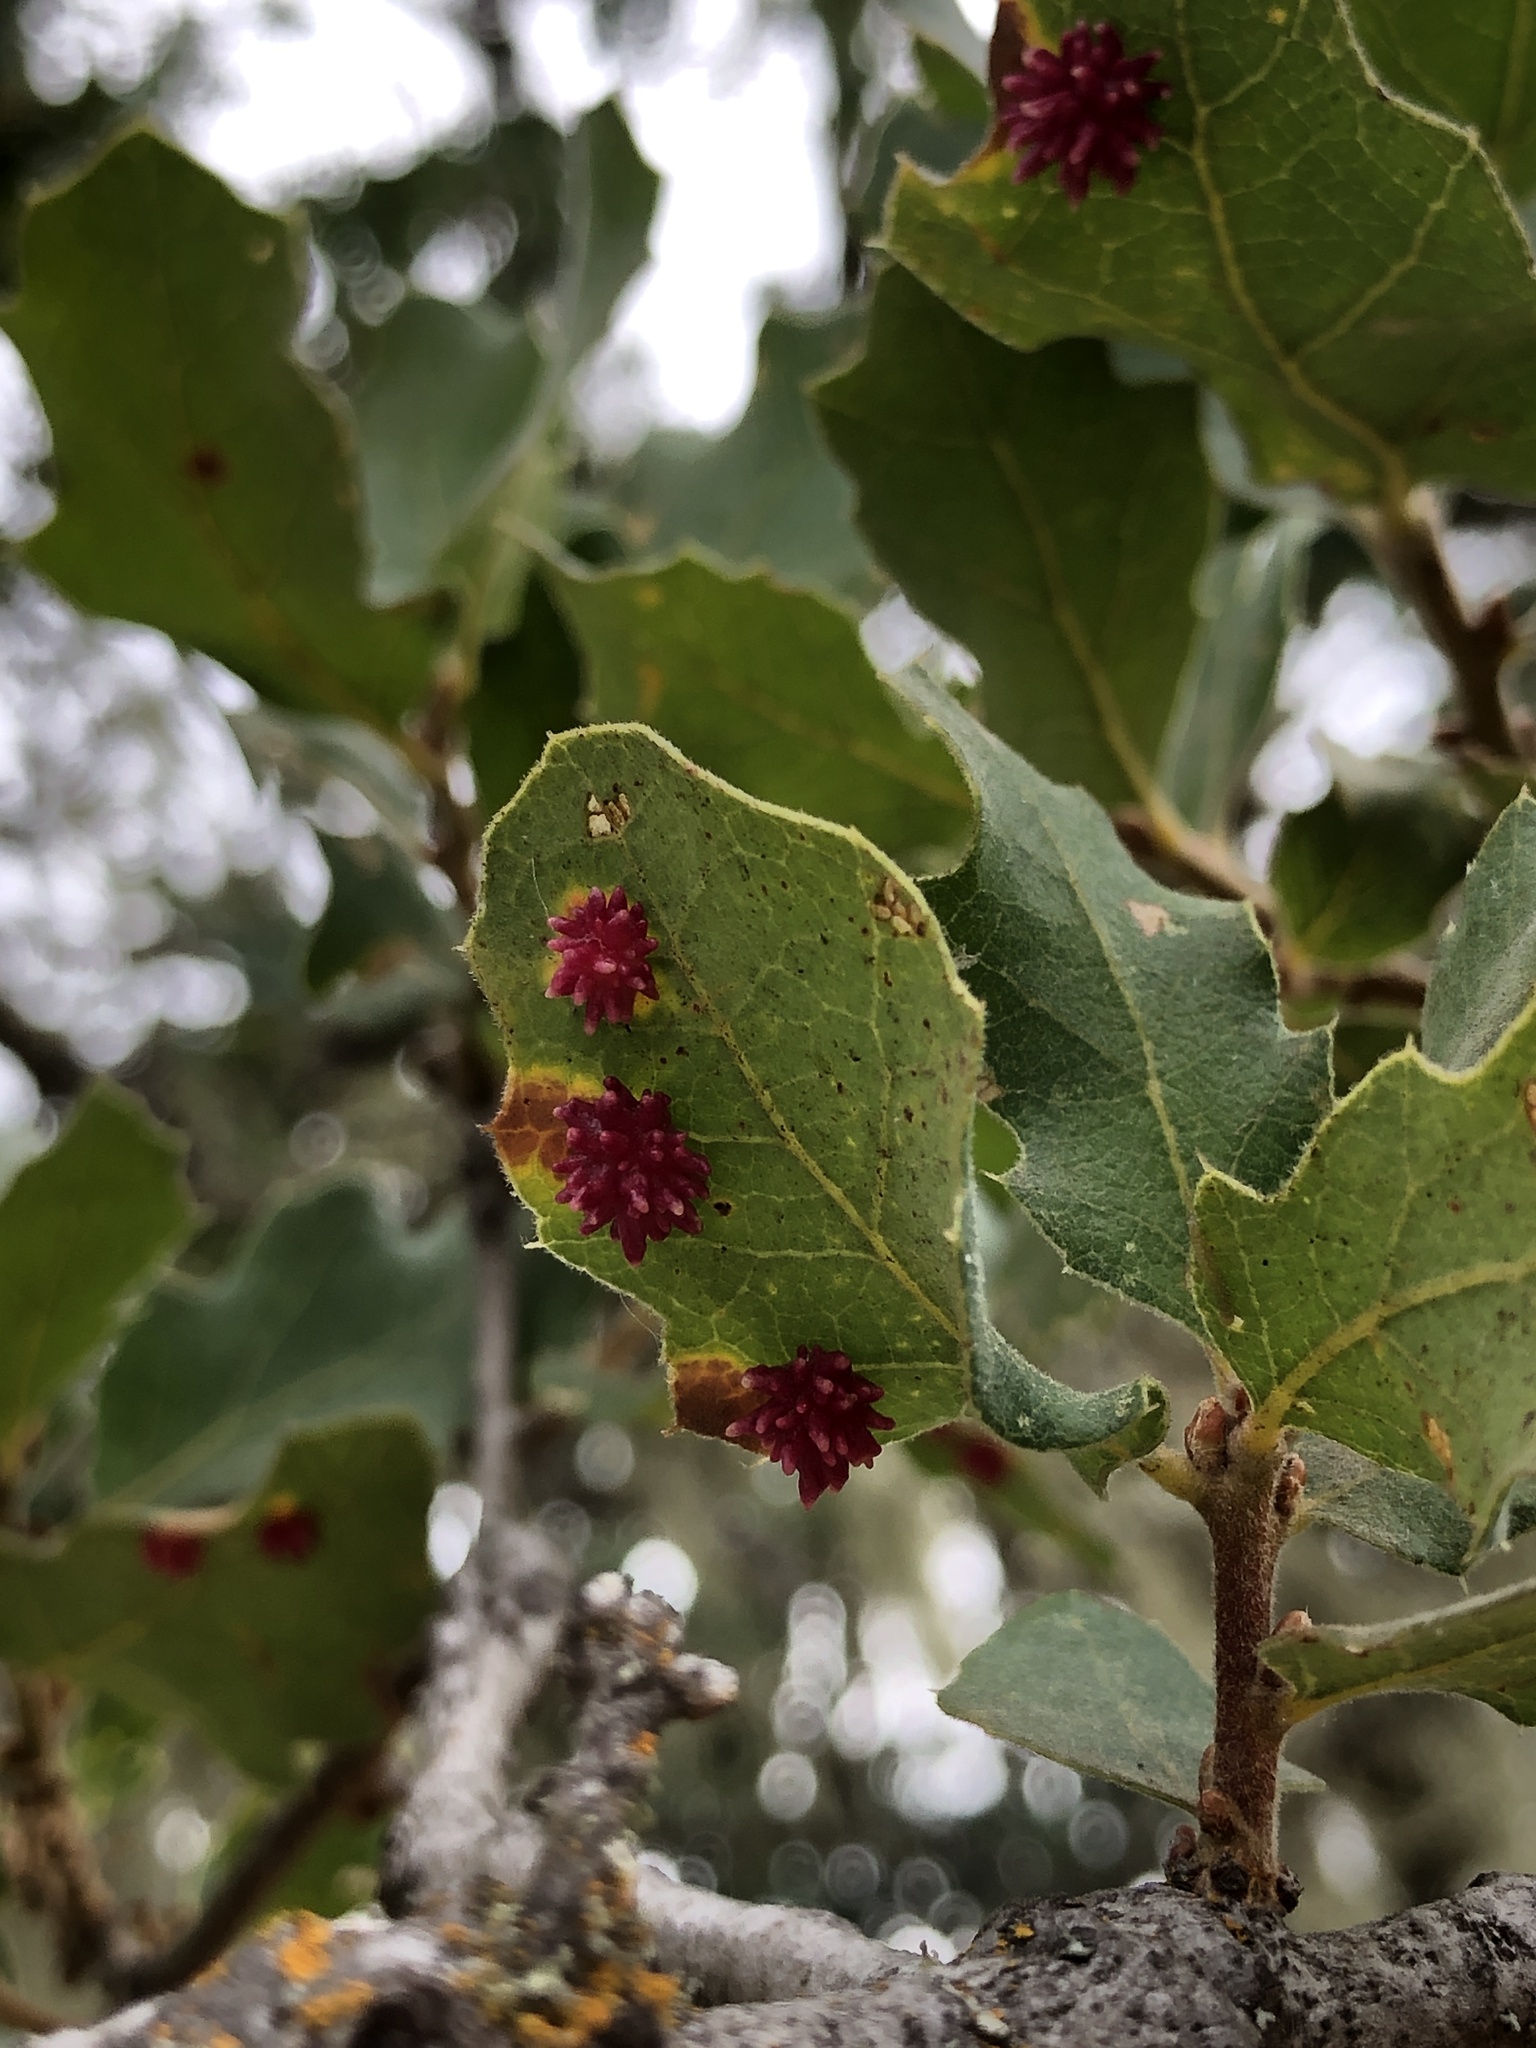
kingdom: Animalia
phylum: Arthropoda
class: Insecta
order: Hymenoptera
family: Cynipidae
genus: Cynips
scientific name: Cynips
